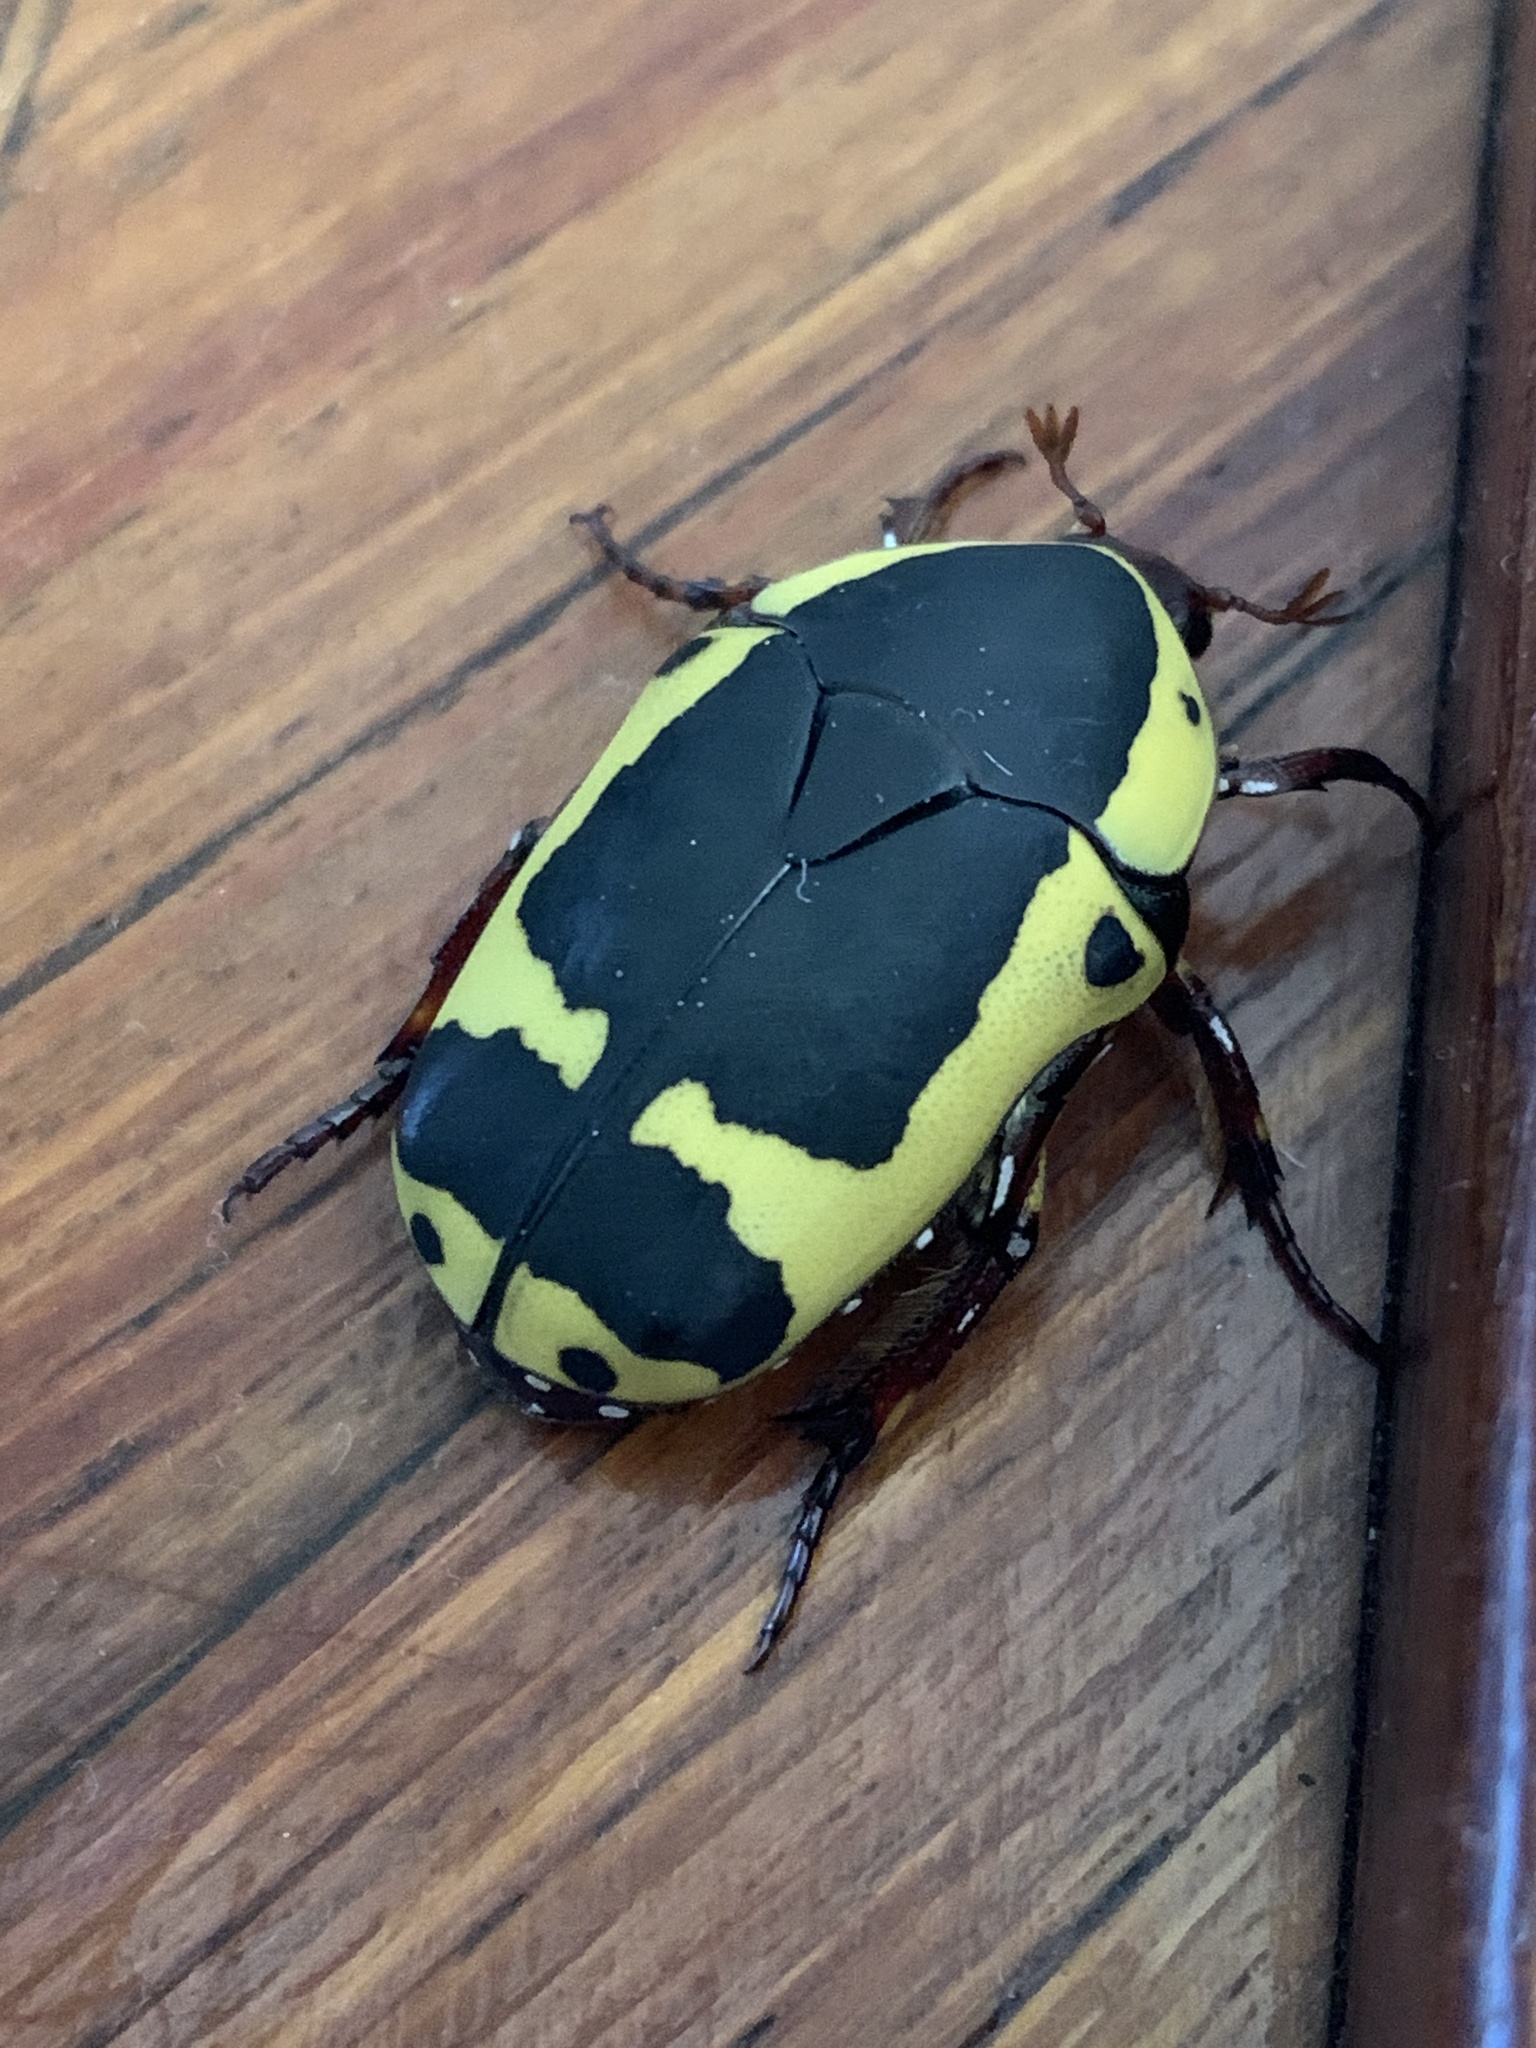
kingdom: Animalia
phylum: Arthropoda
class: Insecta
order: Coleoptera
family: Scarabaeidae
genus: Pachnoda
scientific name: Pachnoda sinuata
